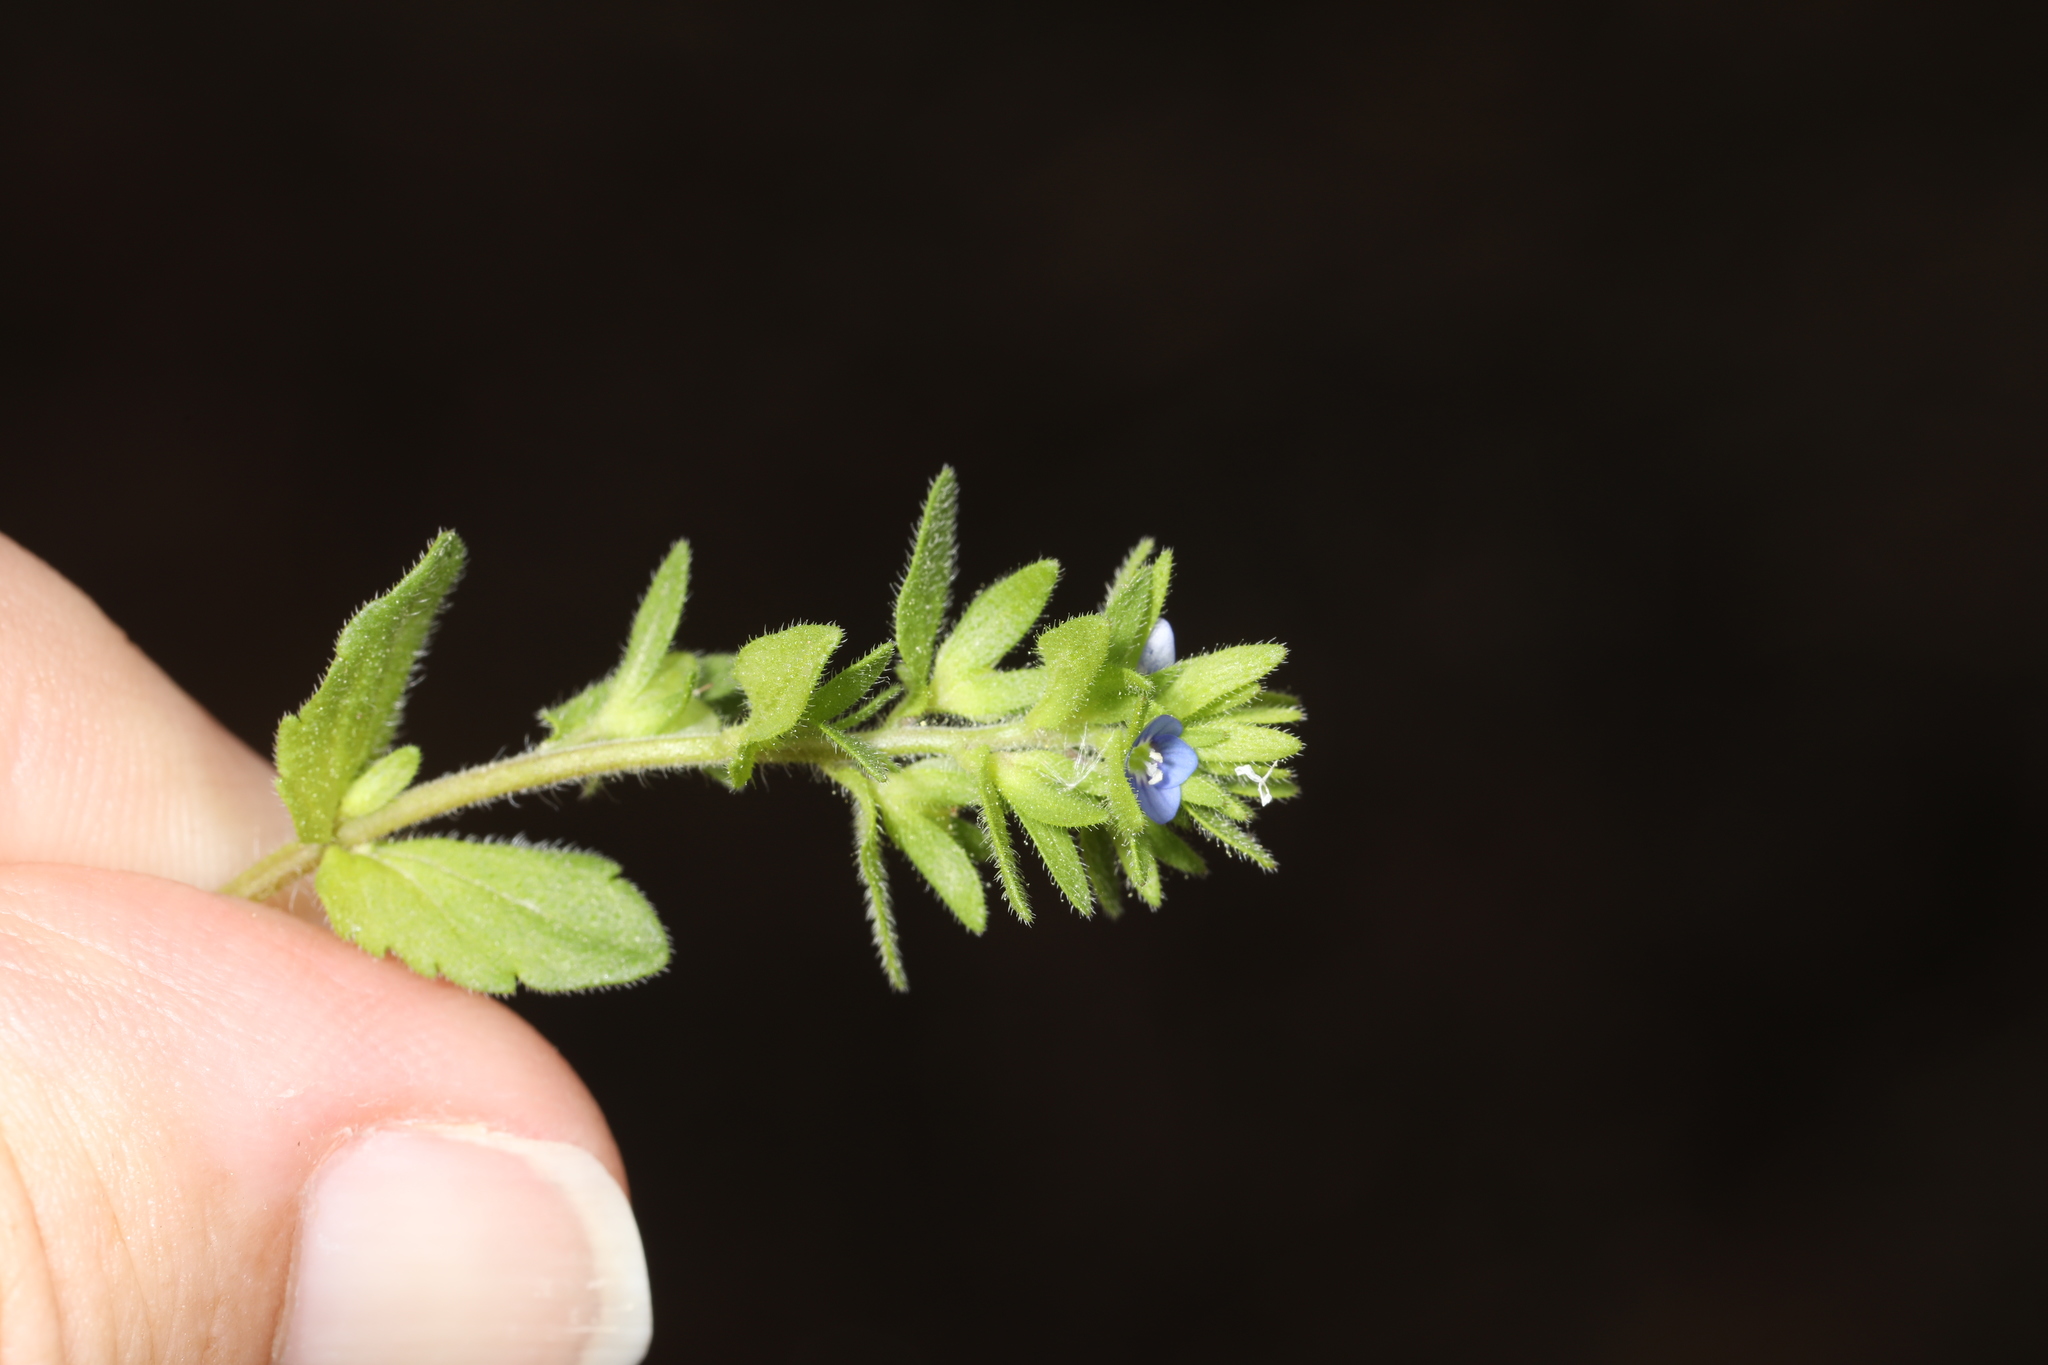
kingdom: Plantae
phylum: Tracheophyta
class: Magnoliopsida
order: Lamiales
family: Plantaginaceae
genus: Veronica
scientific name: Veronica arvensis
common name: Corn speedwell
